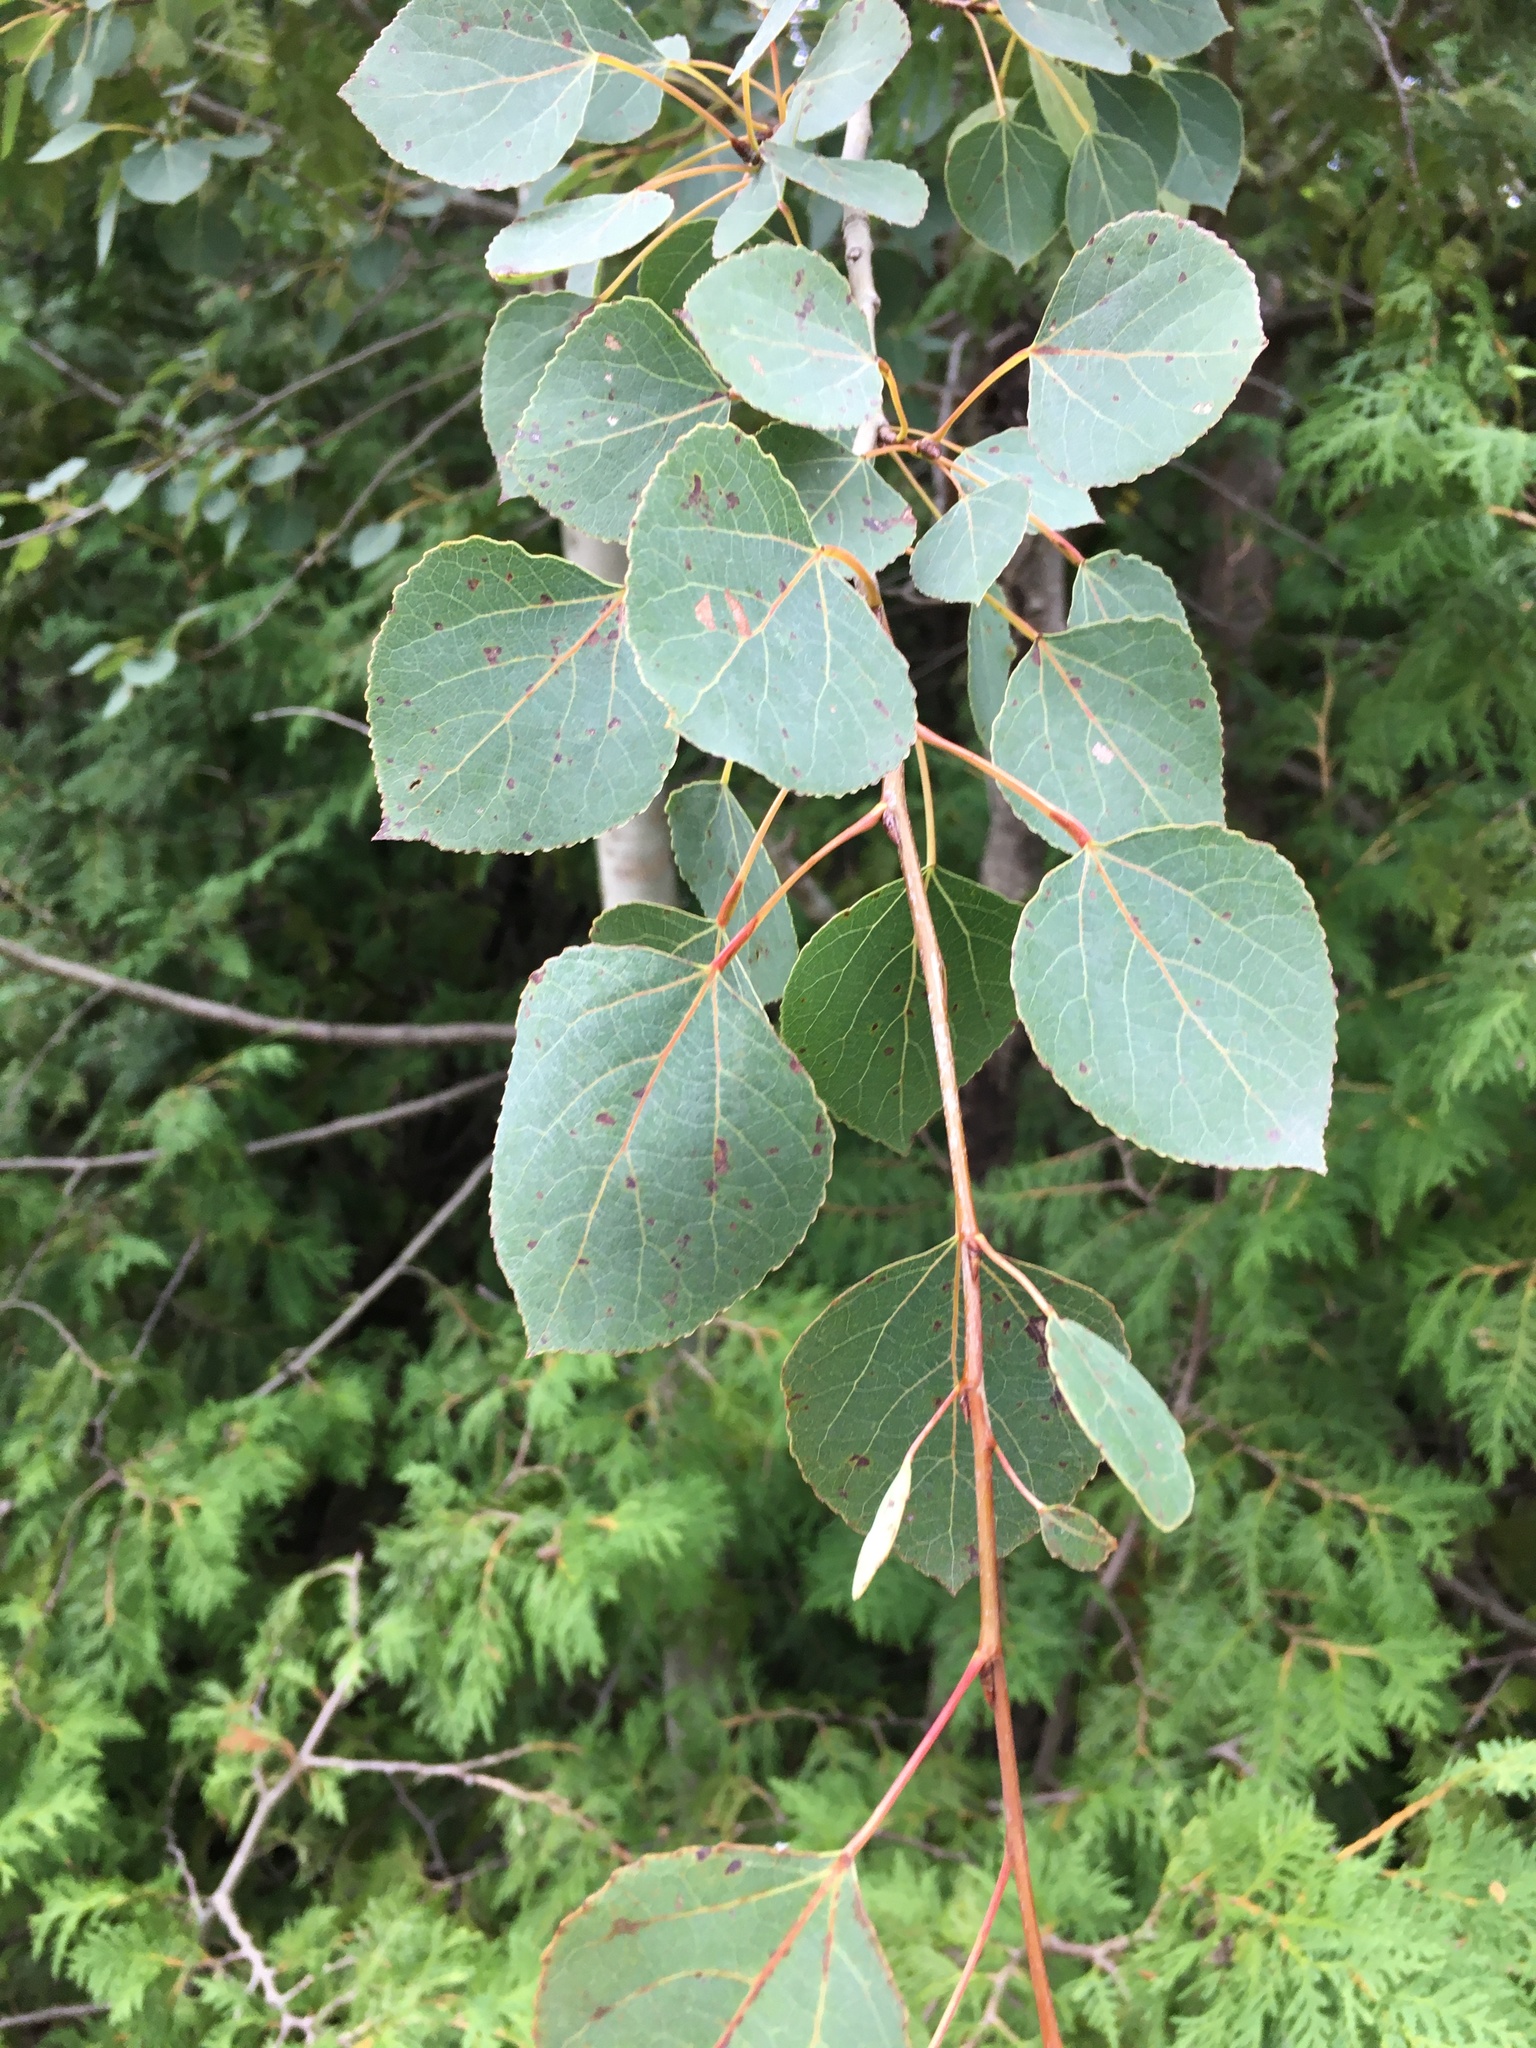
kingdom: Plantae
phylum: Tracheophyta
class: Magnoliopsida
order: Malpighiales
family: Salicaceae
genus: Populus
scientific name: Populus tremuloides
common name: Quaking aspen
